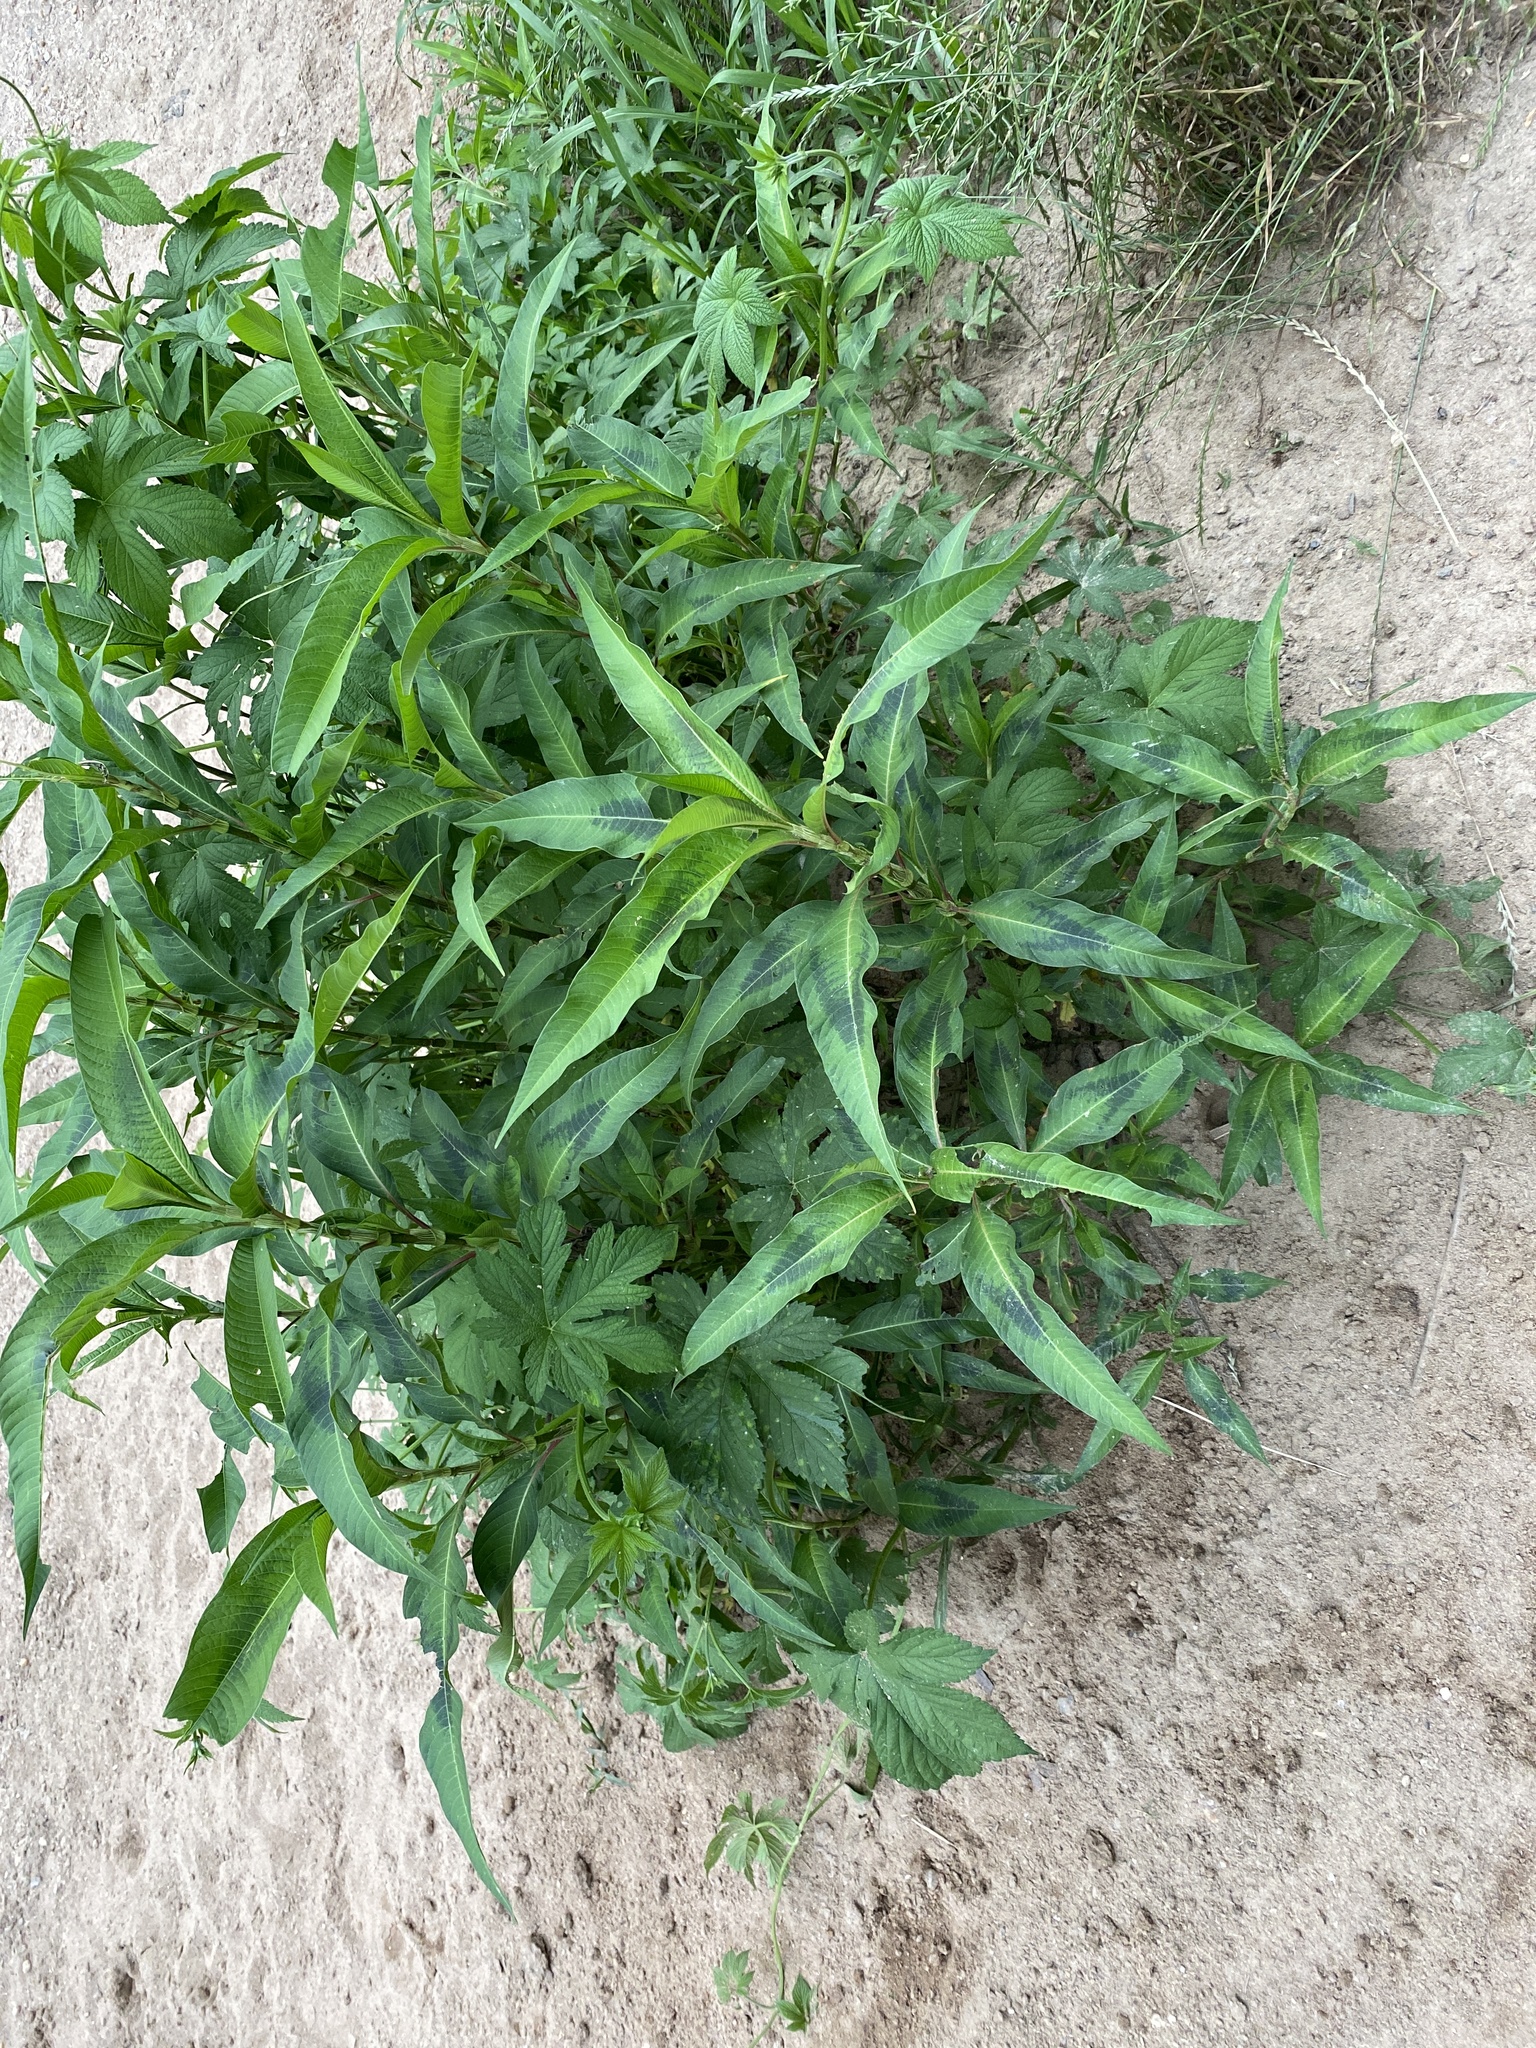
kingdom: Plantae
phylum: Tracheophyta
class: Magnoliopsida
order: Caryophyllales
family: Polygonaceae
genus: Persicaria
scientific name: Persicaria pensylvanica
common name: Pinkweed
